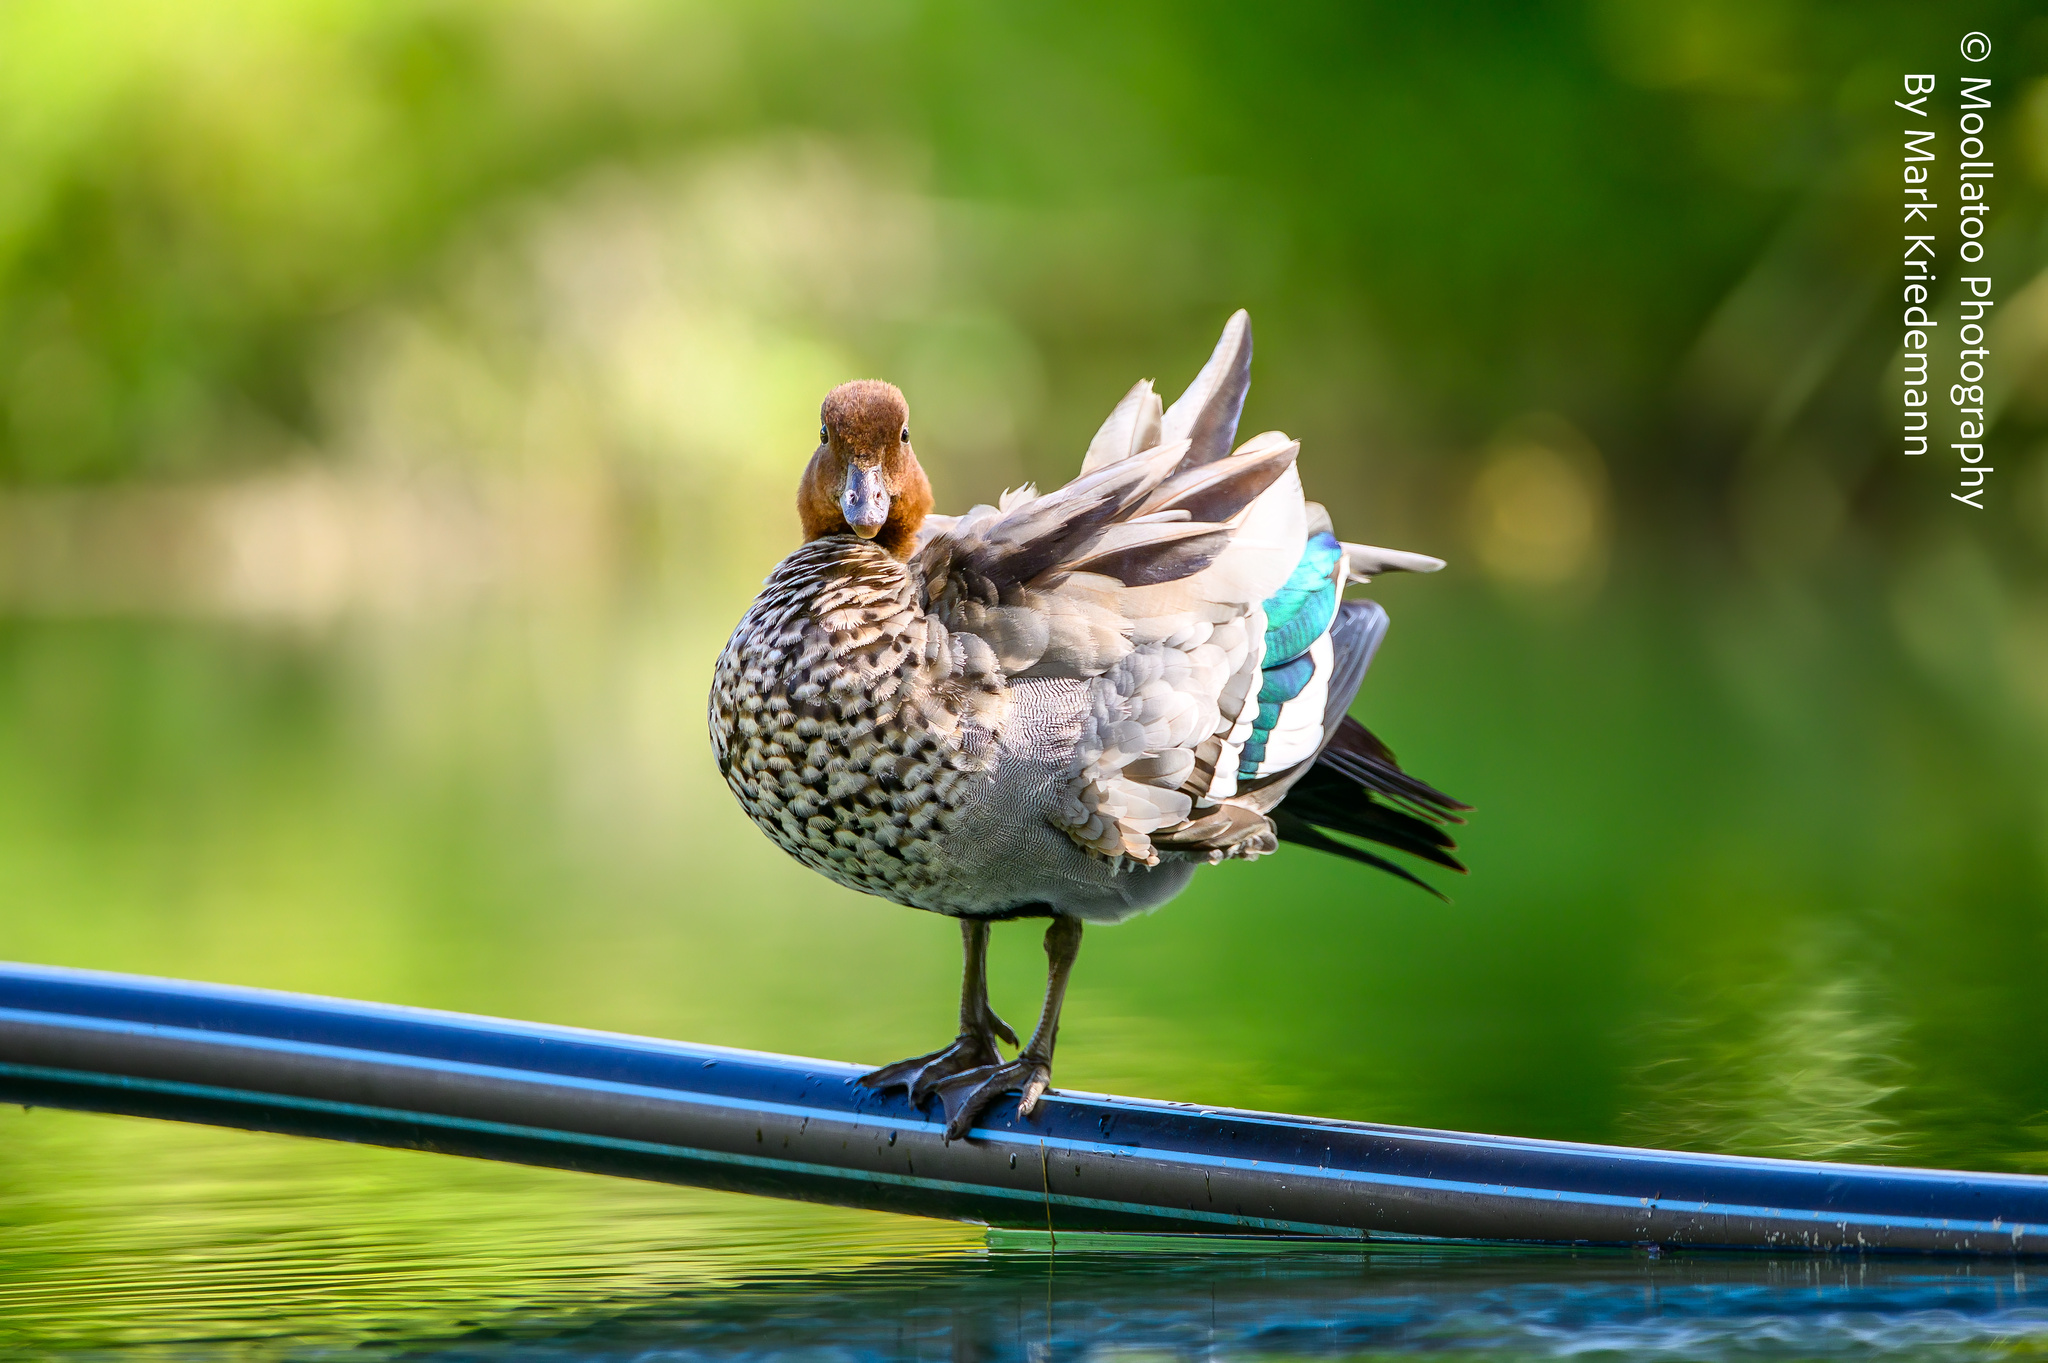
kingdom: Animalia
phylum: Chordata
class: Aves
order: Anseriformes
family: Anatidae
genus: Chenonetta
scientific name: Chenonetta jubata
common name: Maned duck
